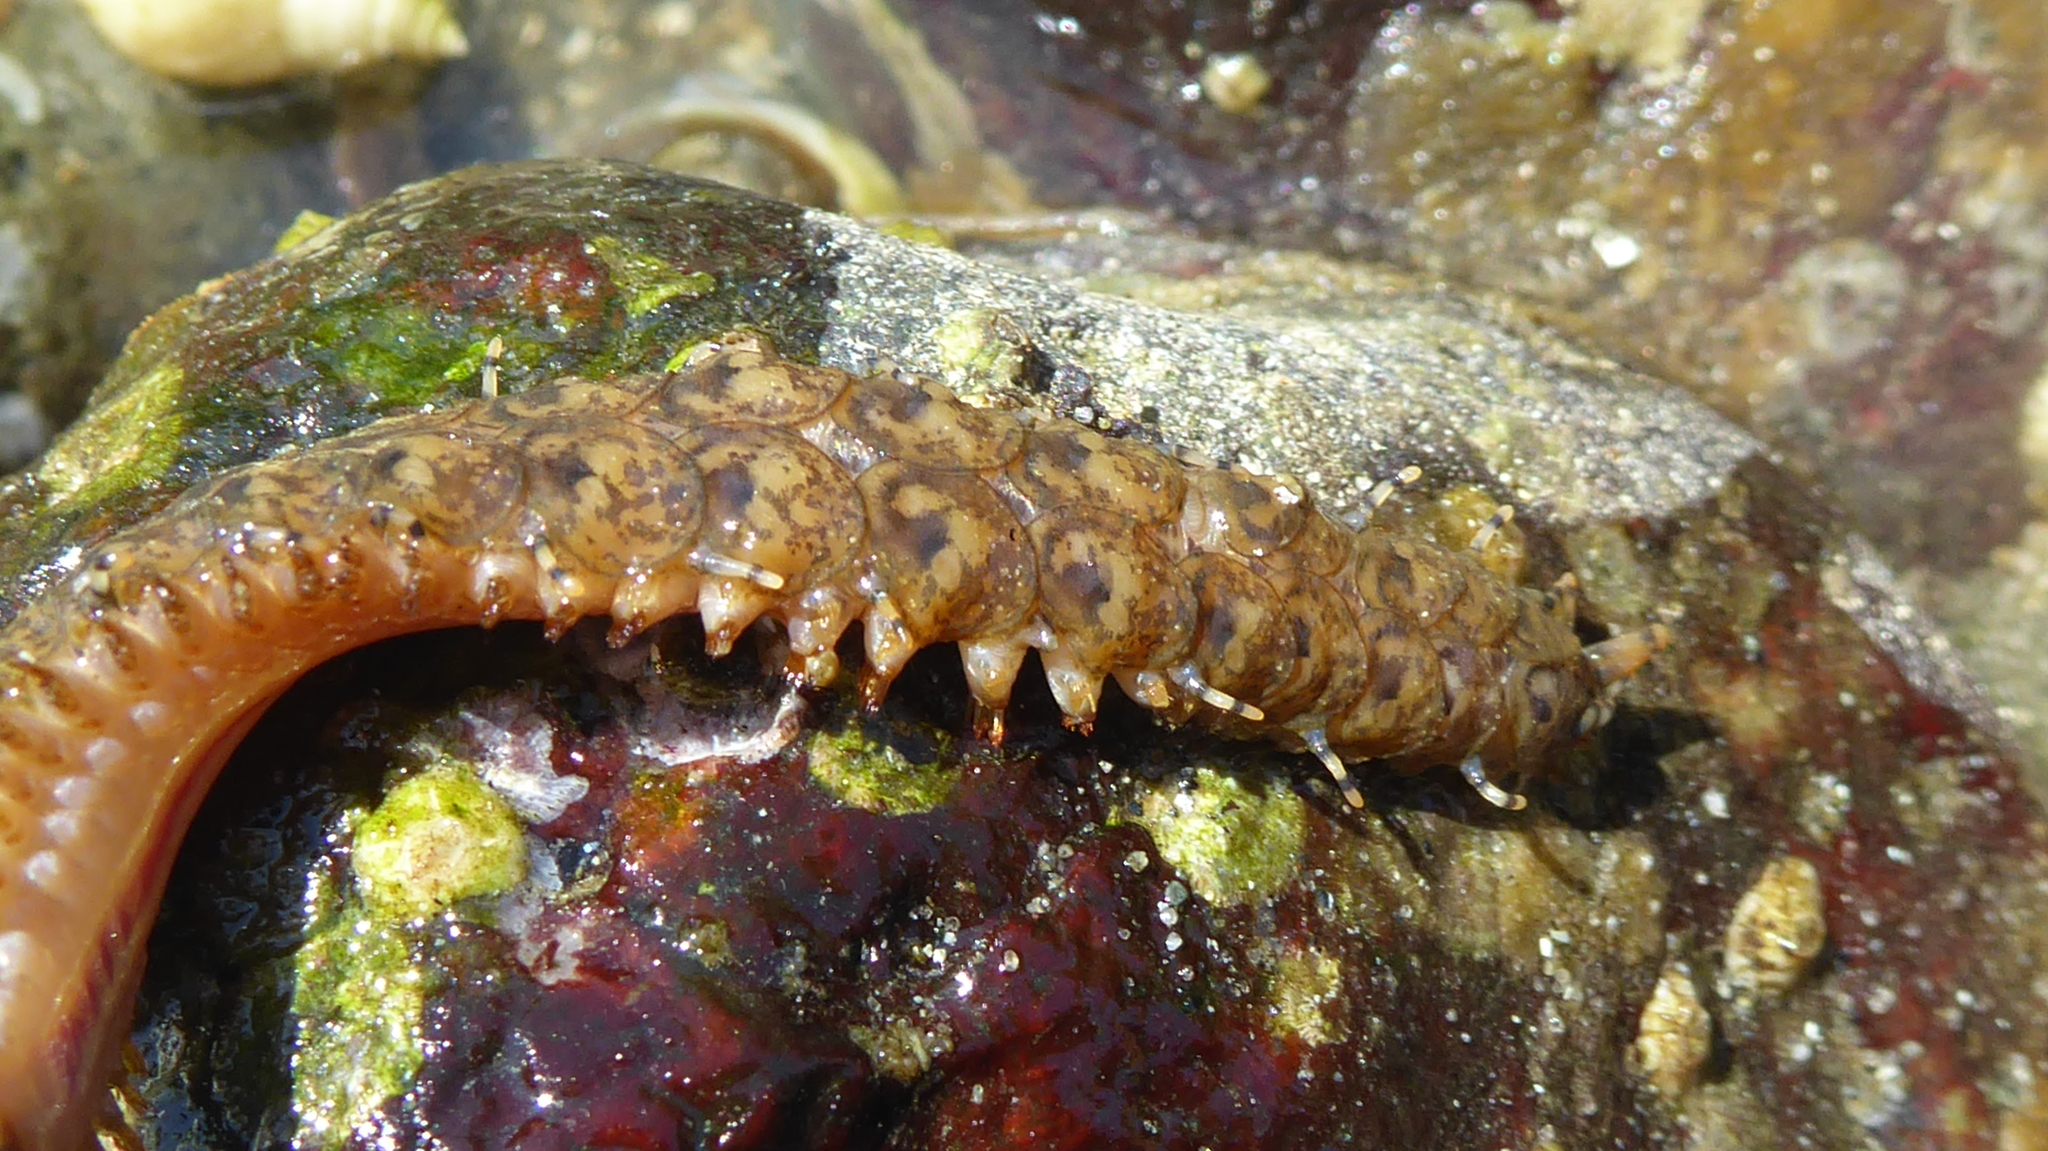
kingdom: Animalia
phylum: Annelida
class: Polychaeta
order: Phyllodocida
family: Polynoidae
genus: Halosydna
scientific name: Halosydna brevisetosa
